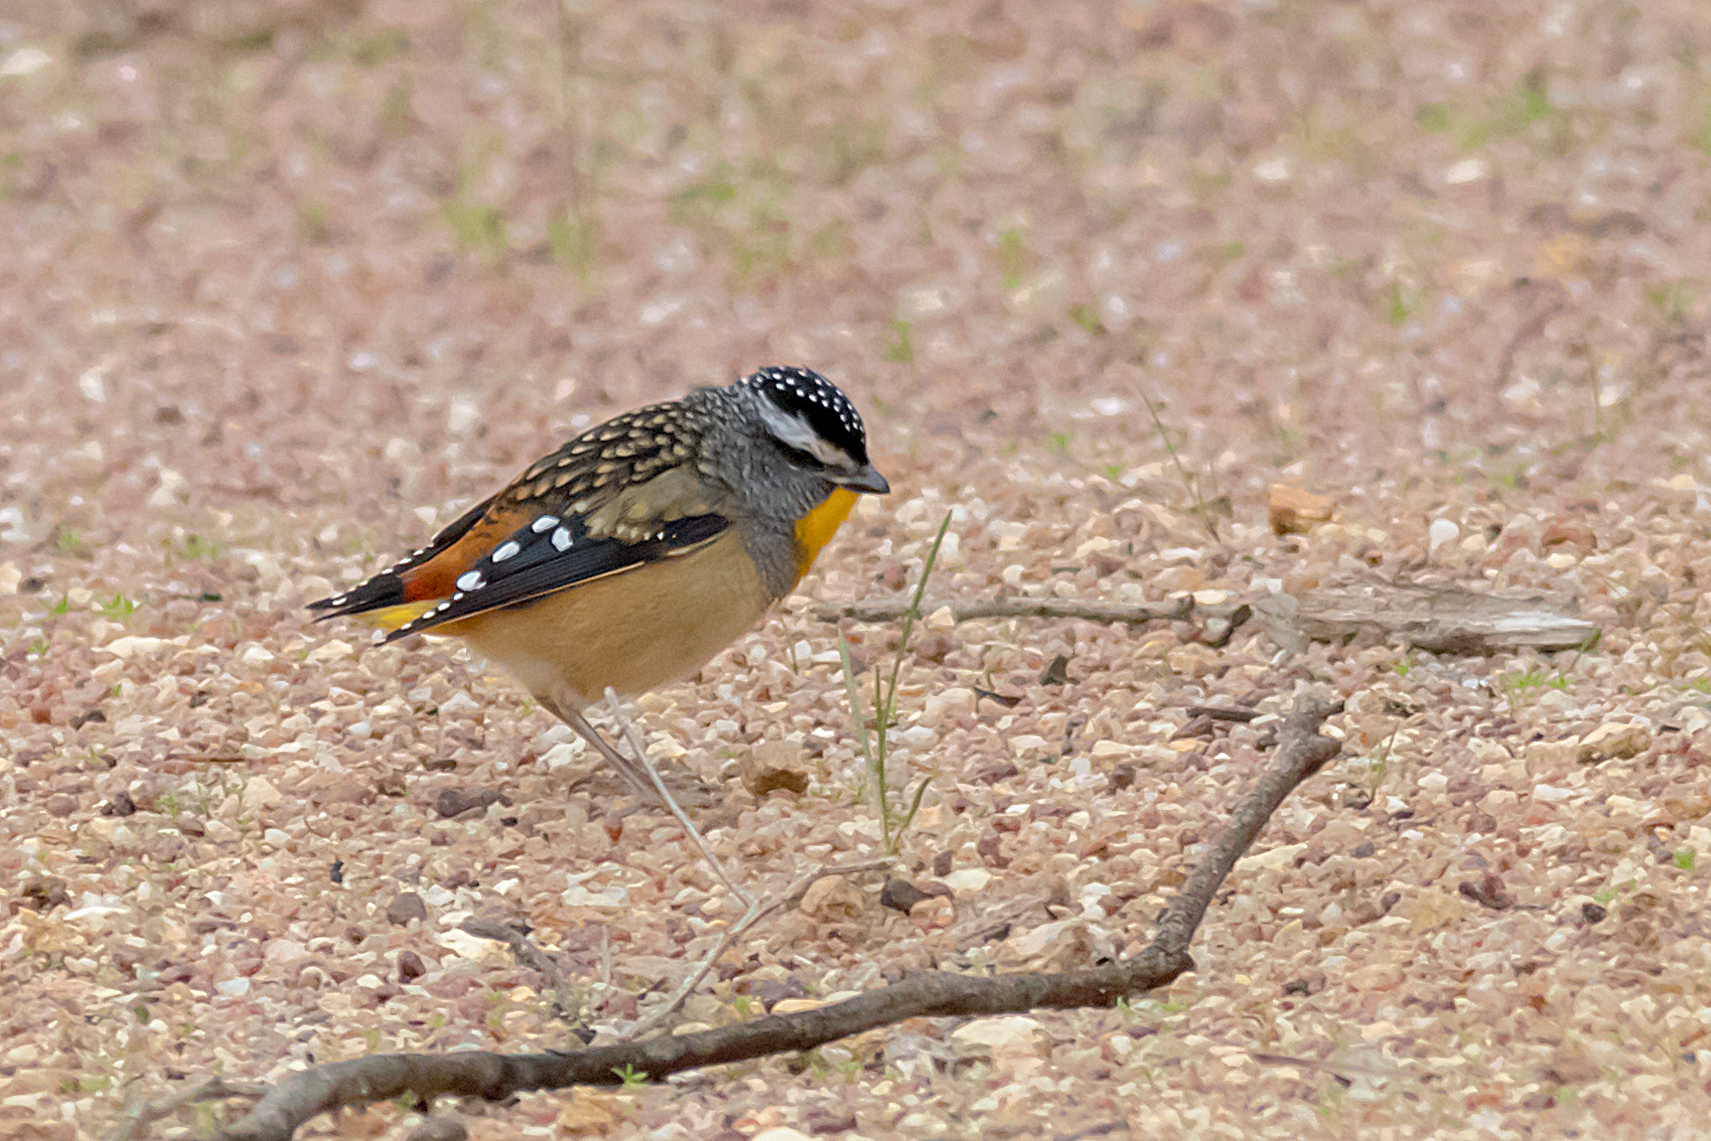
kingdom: Animalia
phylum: Chordata
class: Aves
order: Passeriformes
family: Pardalotidae
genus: Pardalotus
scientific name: Pardalotus punctatus
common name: Spotted pardalote
